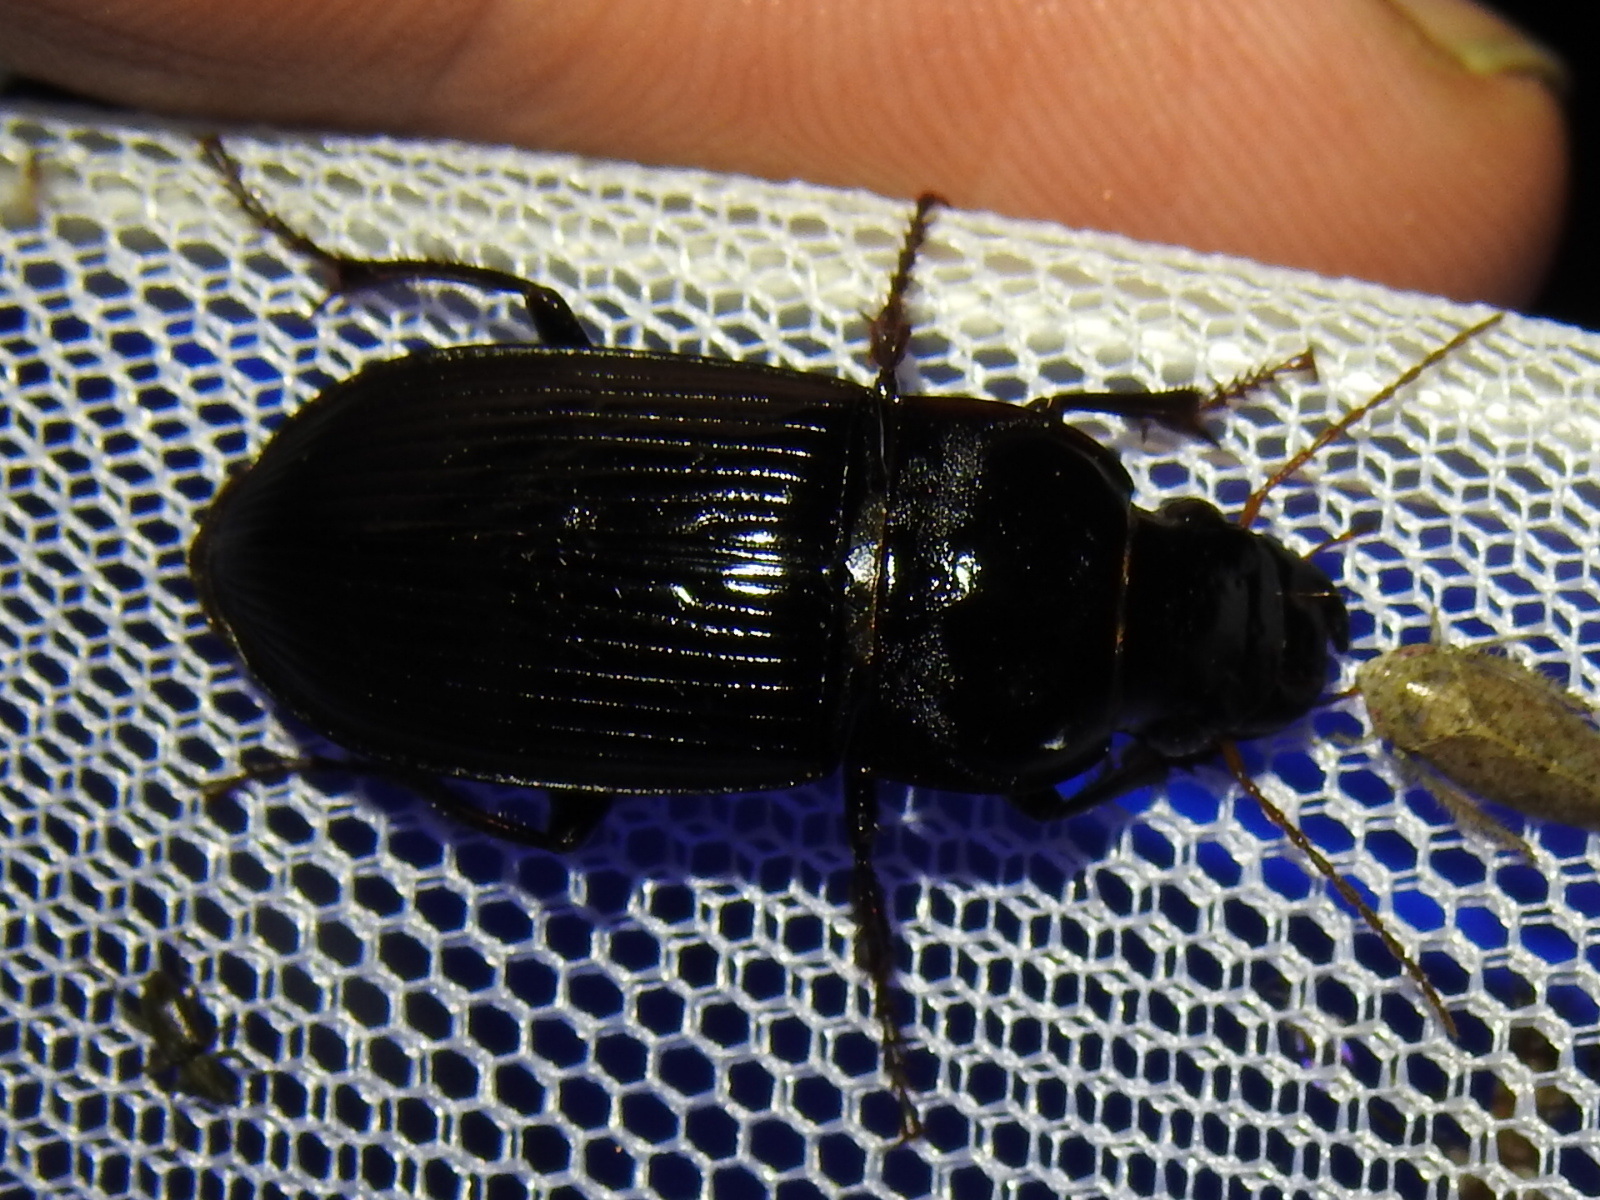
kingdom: Animalia
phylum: Arthropoda
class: Insecta
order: Coleoptera
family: Carabidae
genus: Harpalus
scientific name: Harpalus caliginosus
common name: Murky ground beetle
